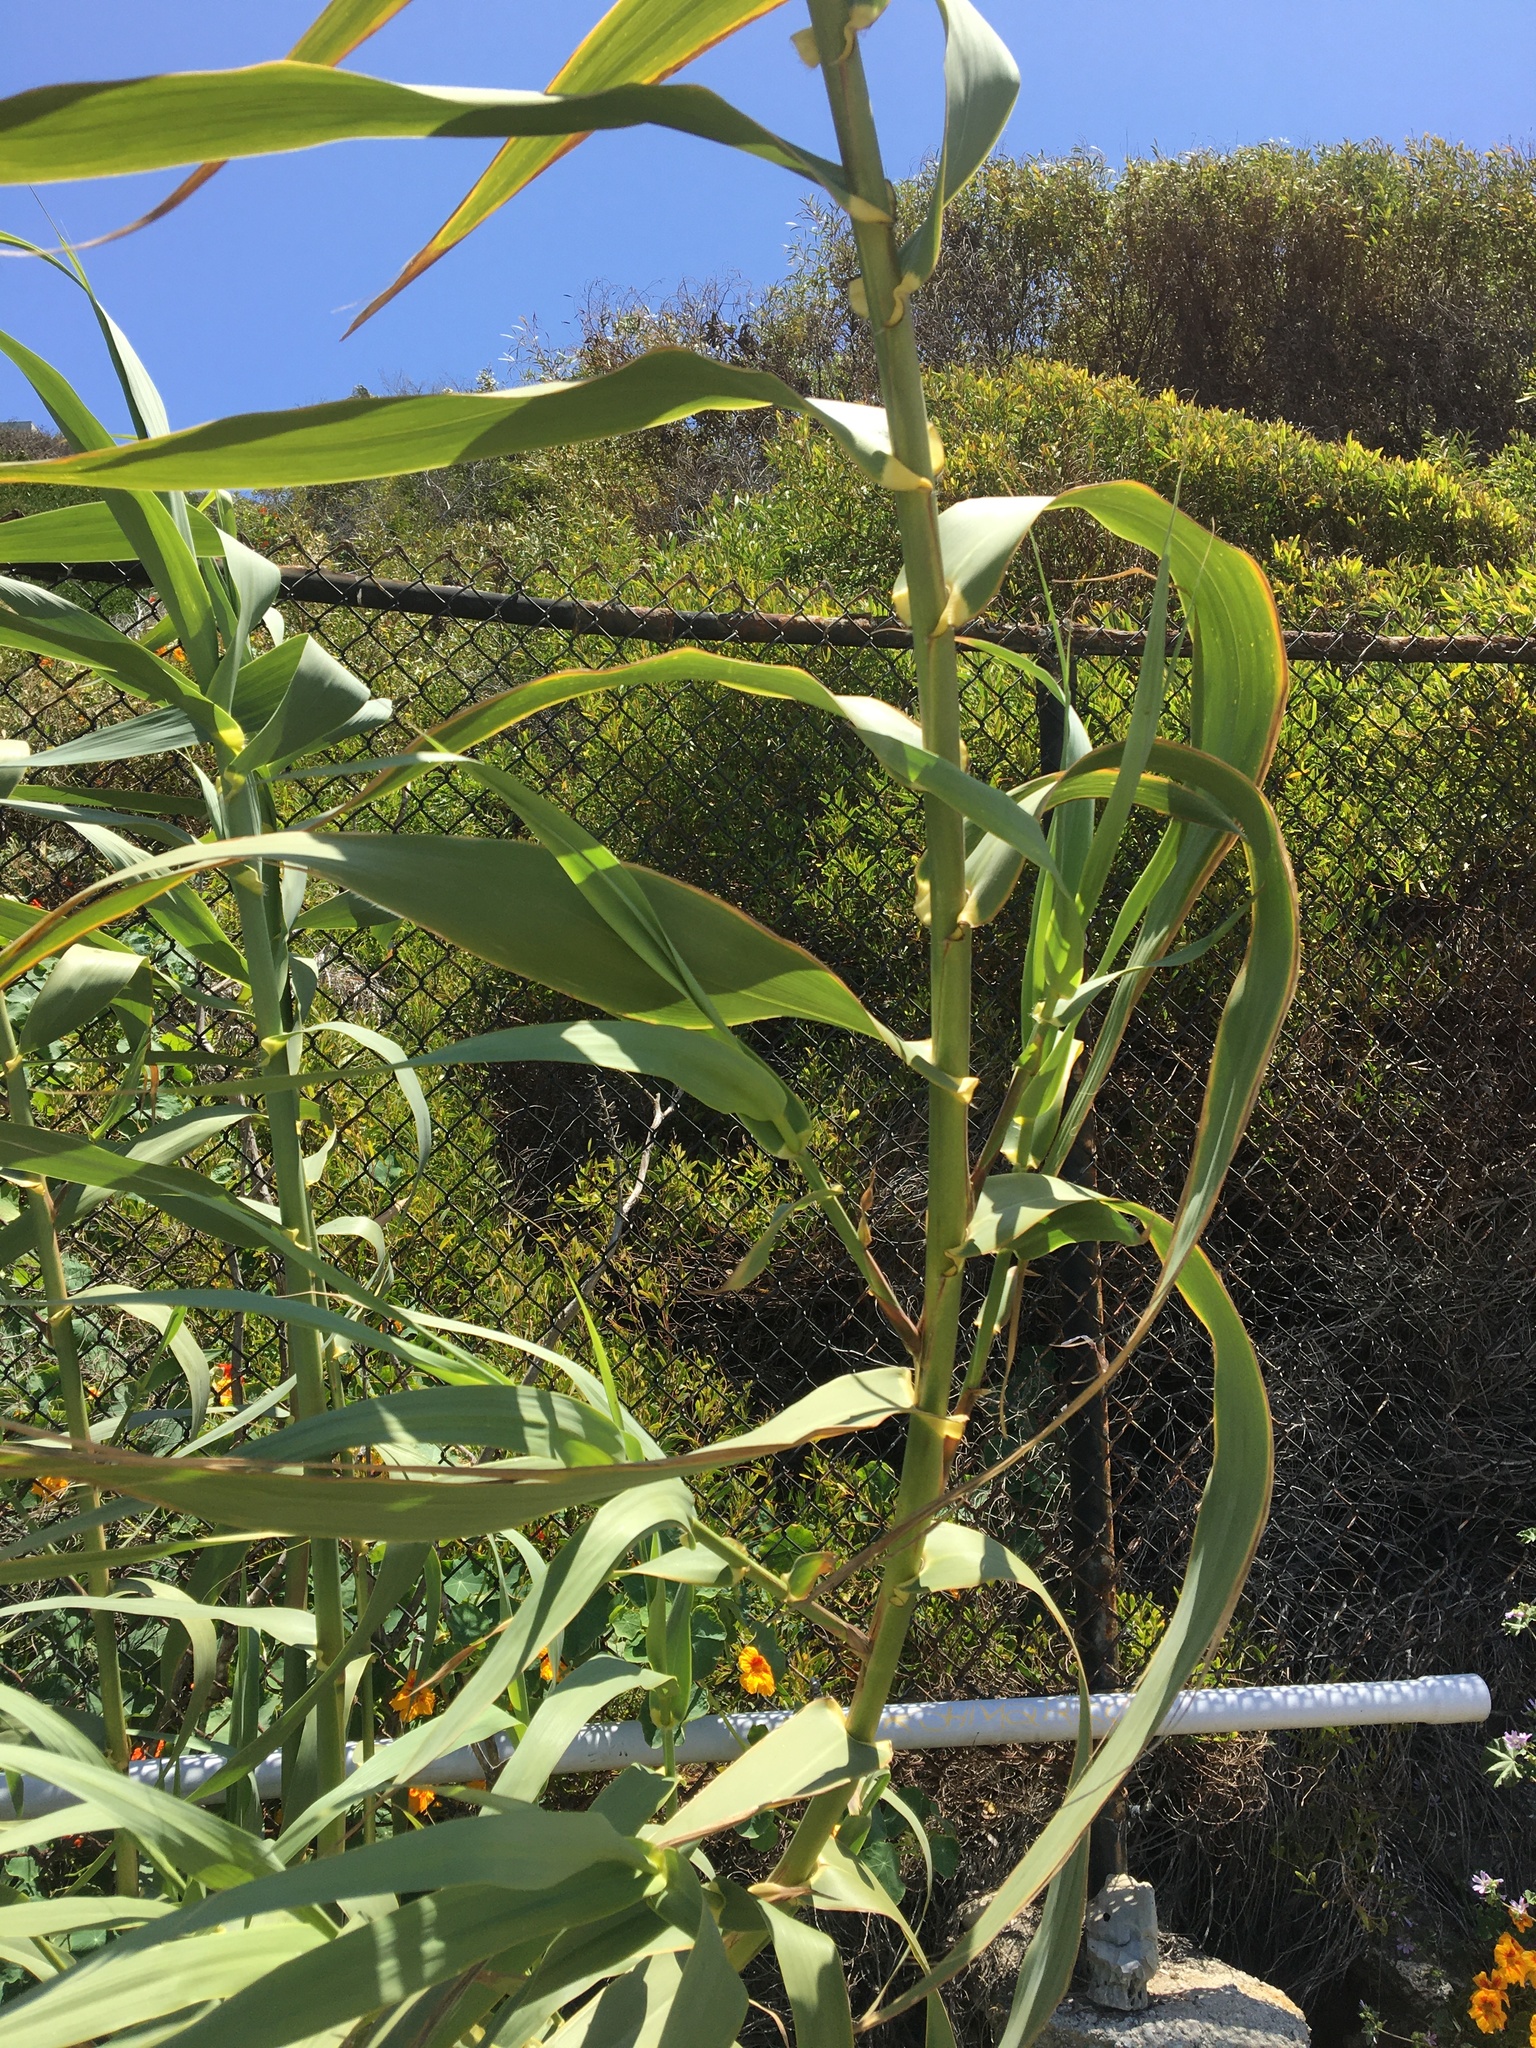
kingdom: Plantae
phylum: Tracheophyta
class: Liliopsida
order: Poales
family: Poaceae
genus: Arundo
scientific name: Arundo donax
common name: Giant reed
